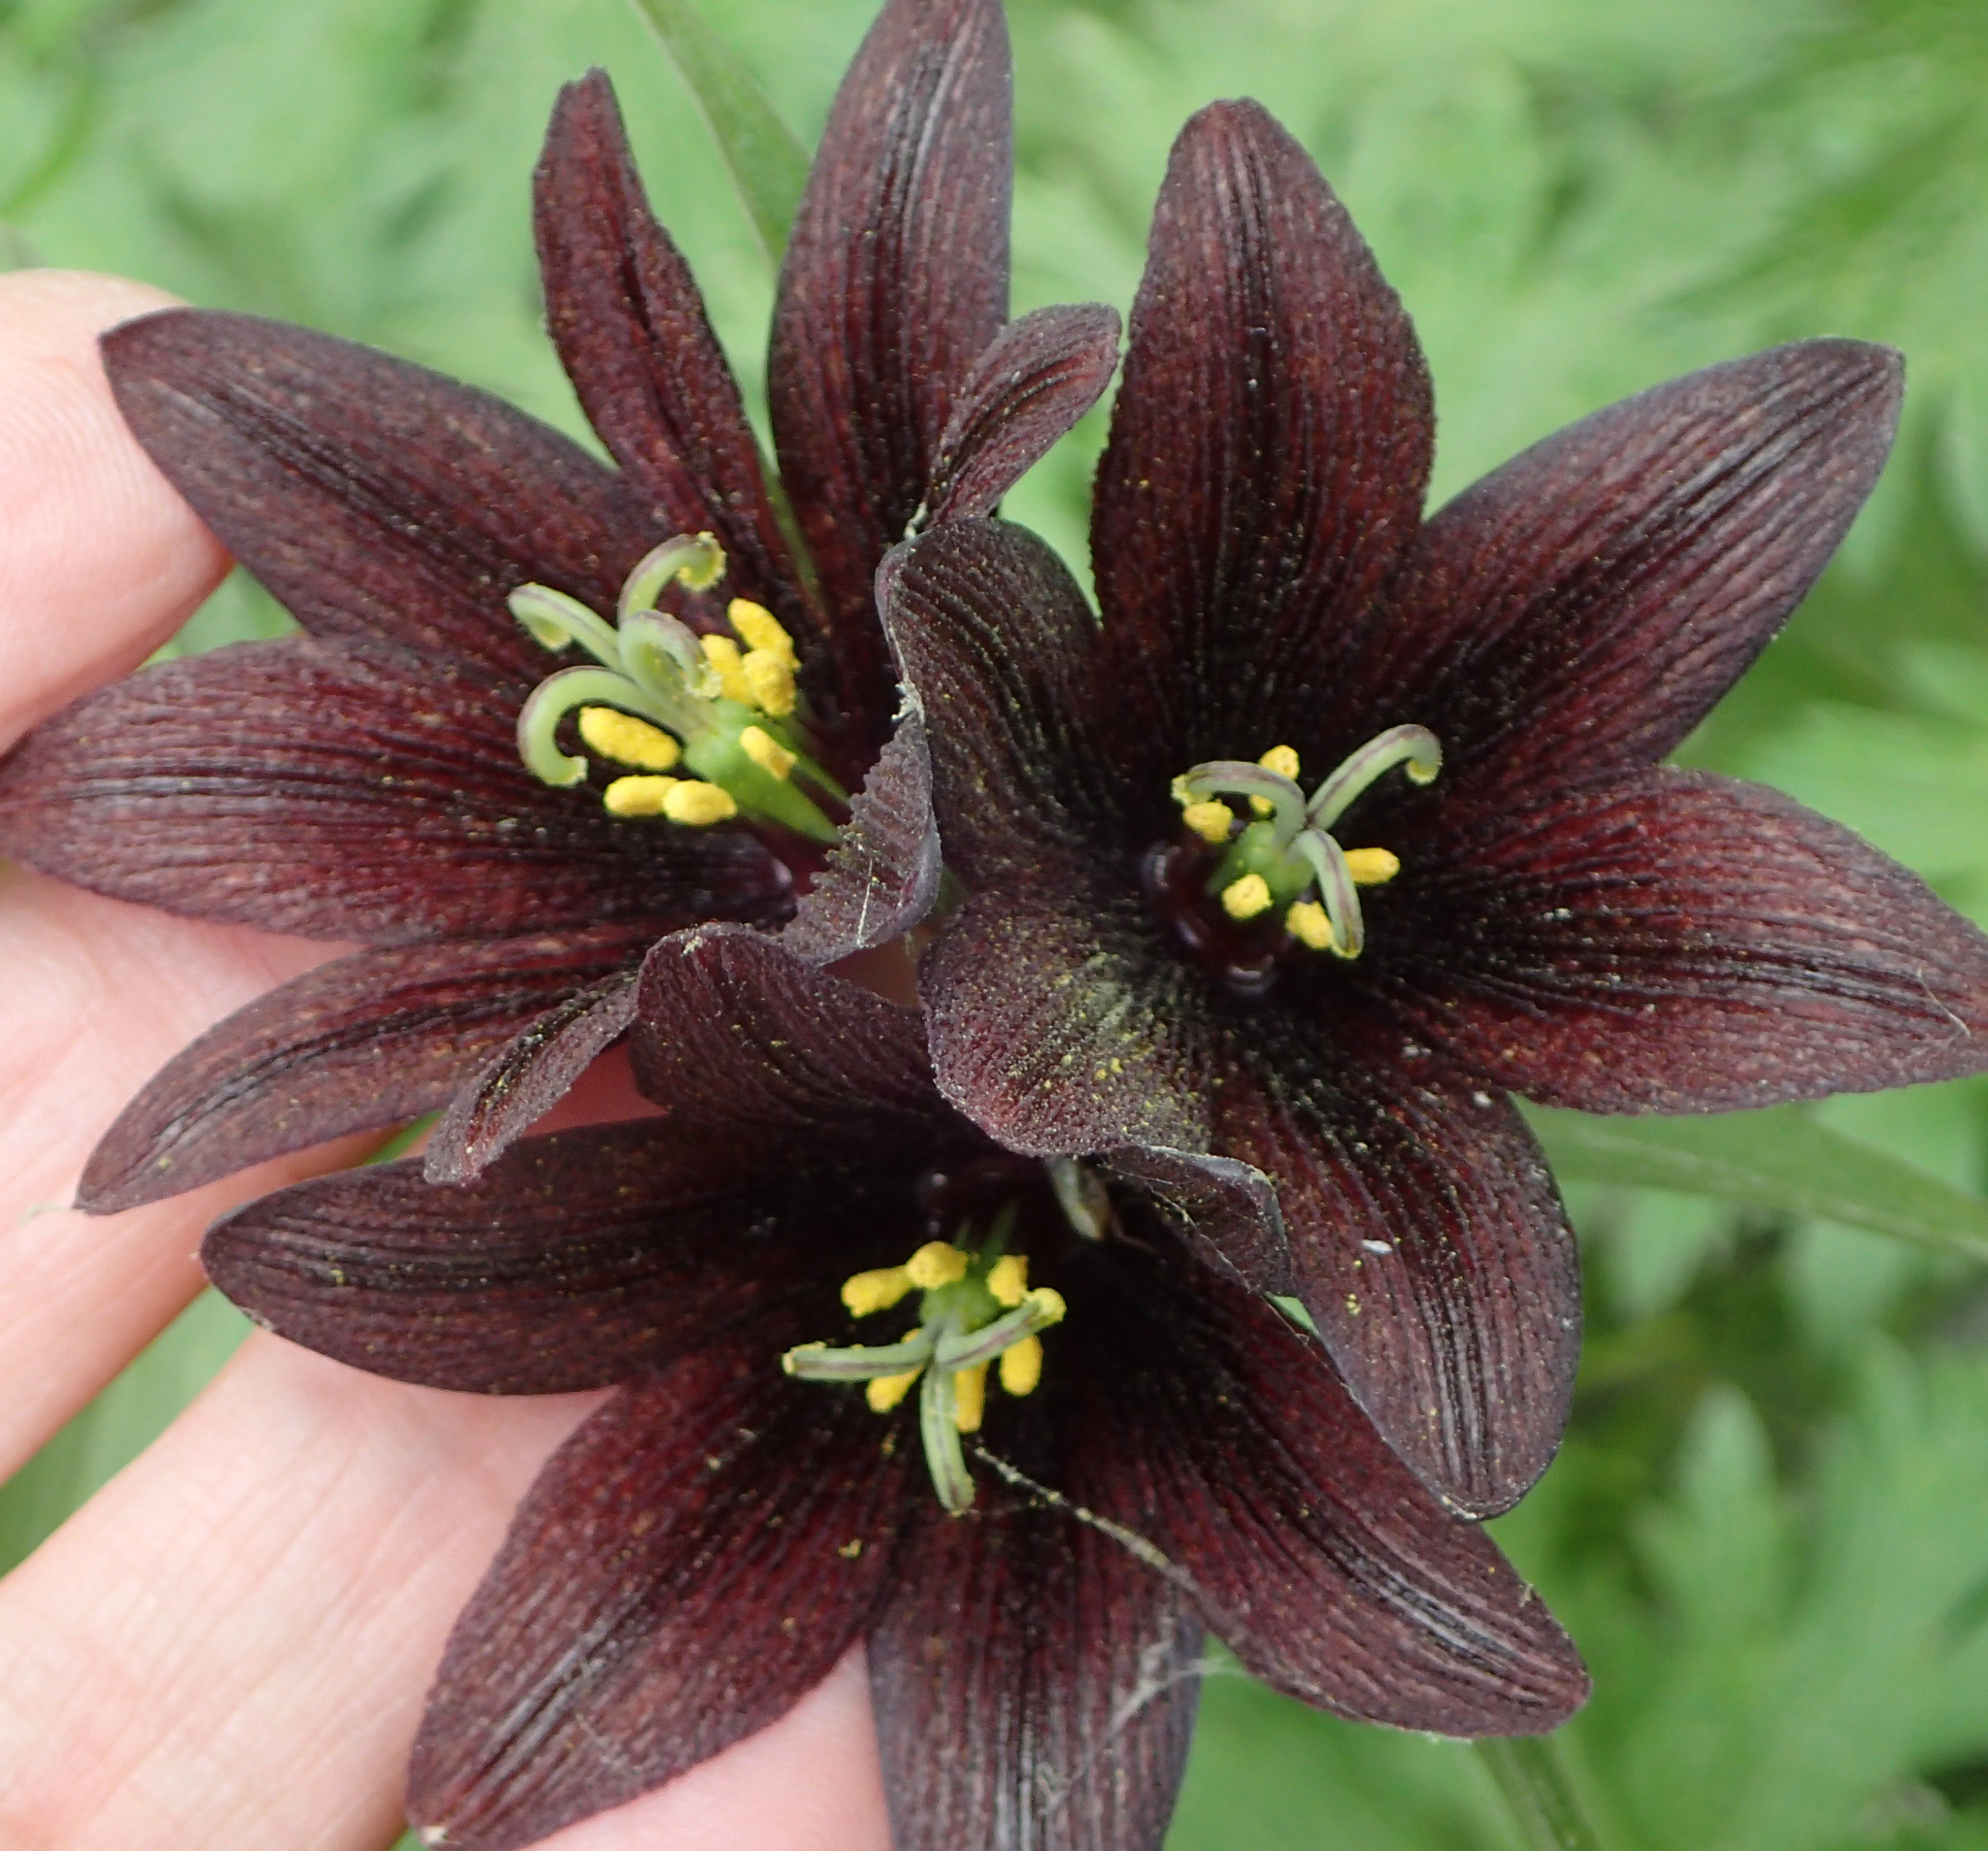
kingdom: Plantae
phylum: Tracheophyta
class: Liliopsida
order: Liliales
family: Liliaceae
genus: Fritillaria
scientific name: Fritillaria camschatcensis
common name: Kamchatka fritillary
